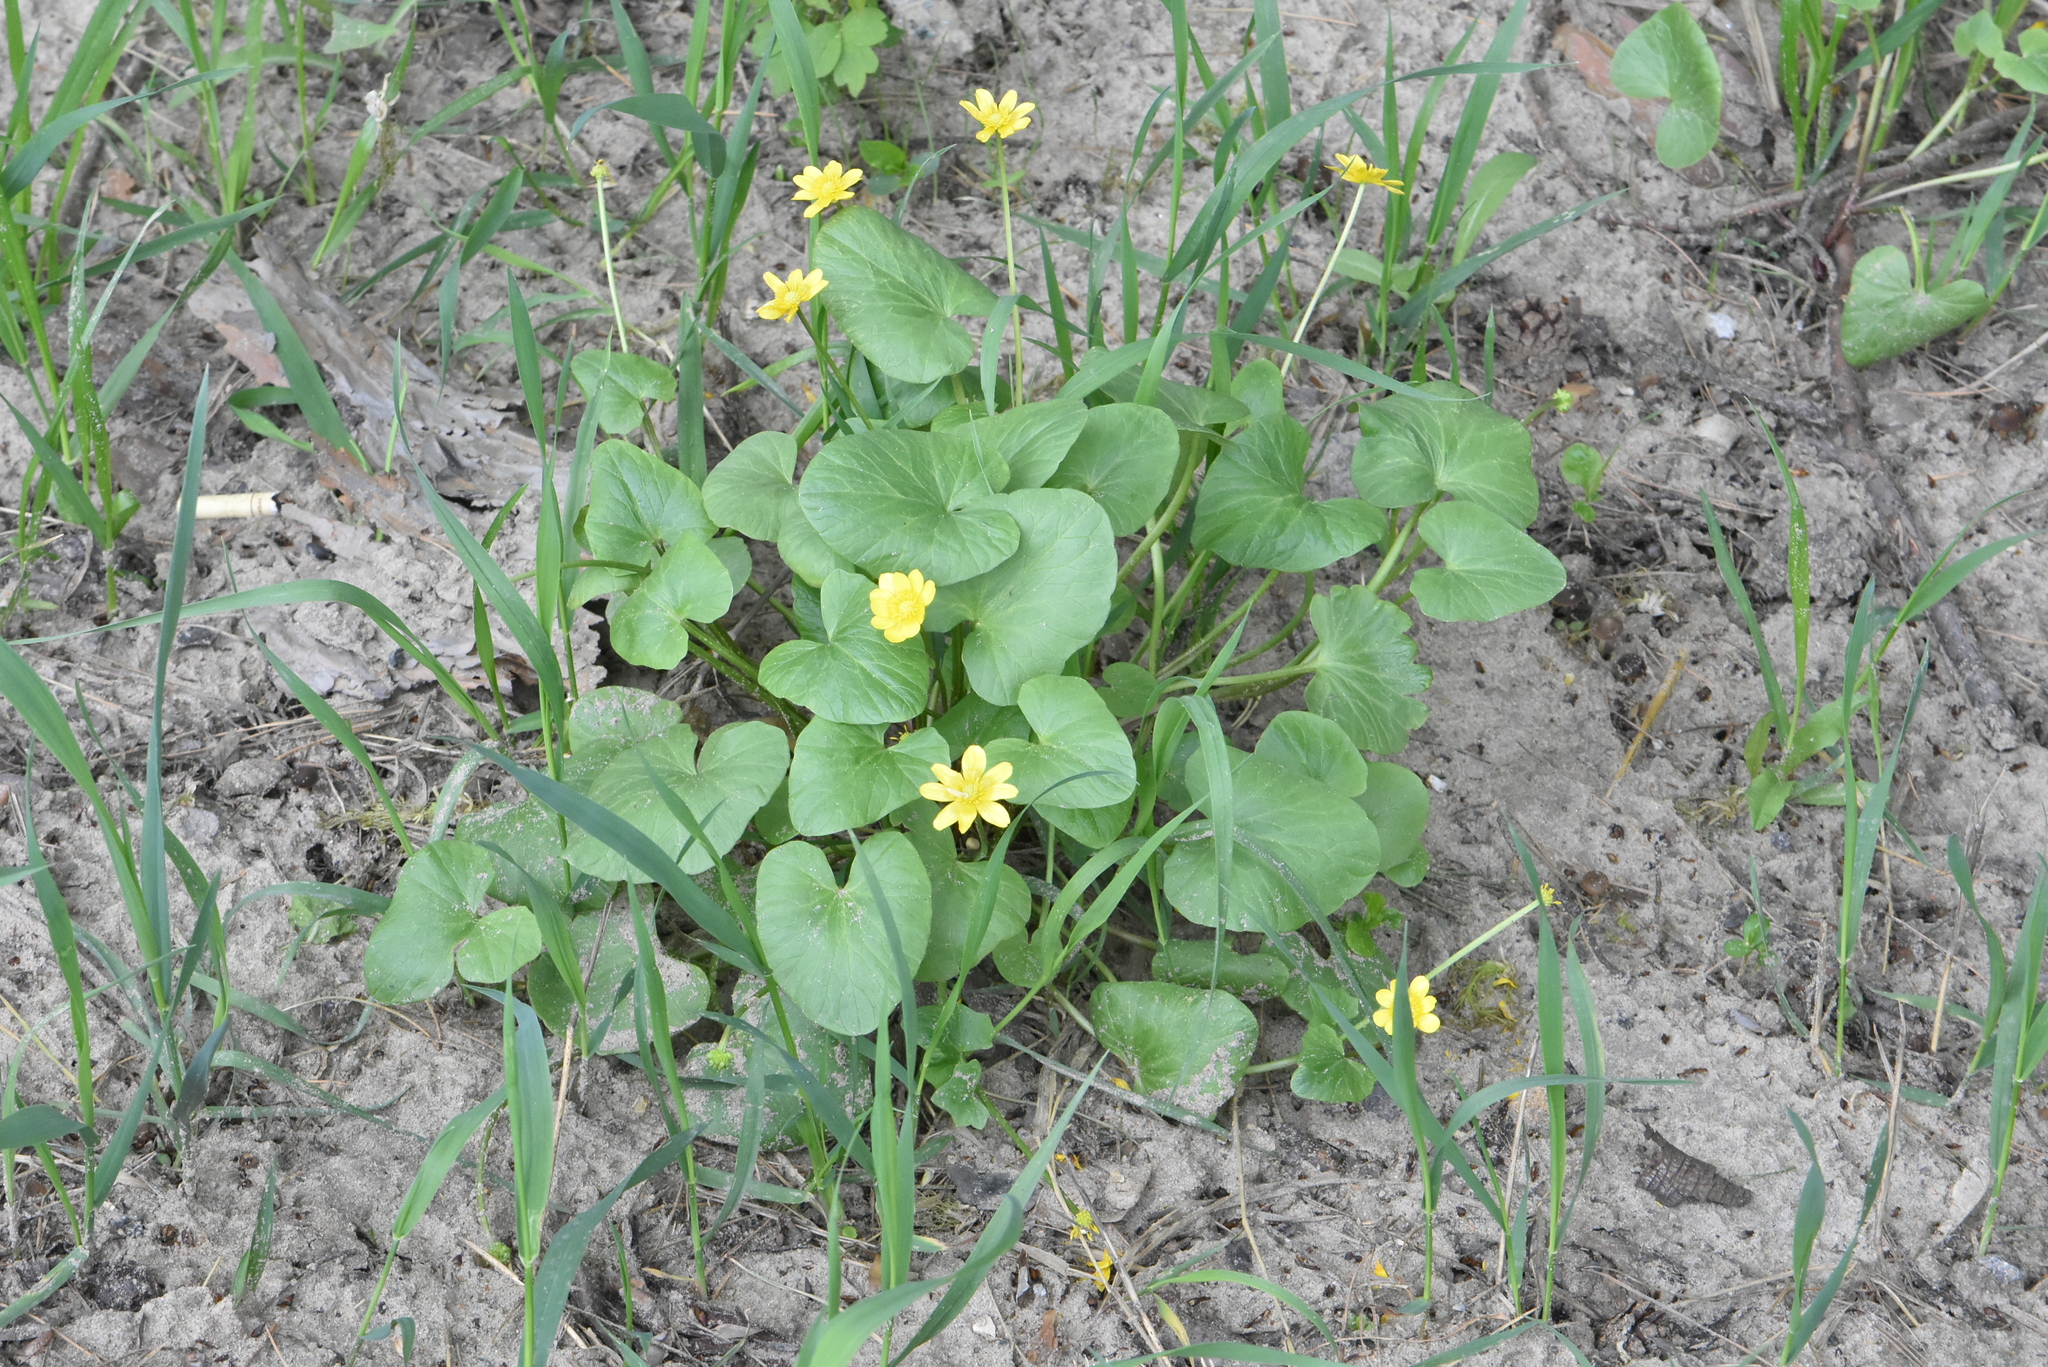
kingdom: Plantae
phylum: Tracheophyta
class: Magnoliopsida
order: Ranunculales
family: Ranunculaceae
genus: Ficaria
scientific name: Ficaria verna
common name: Lesser celandine
